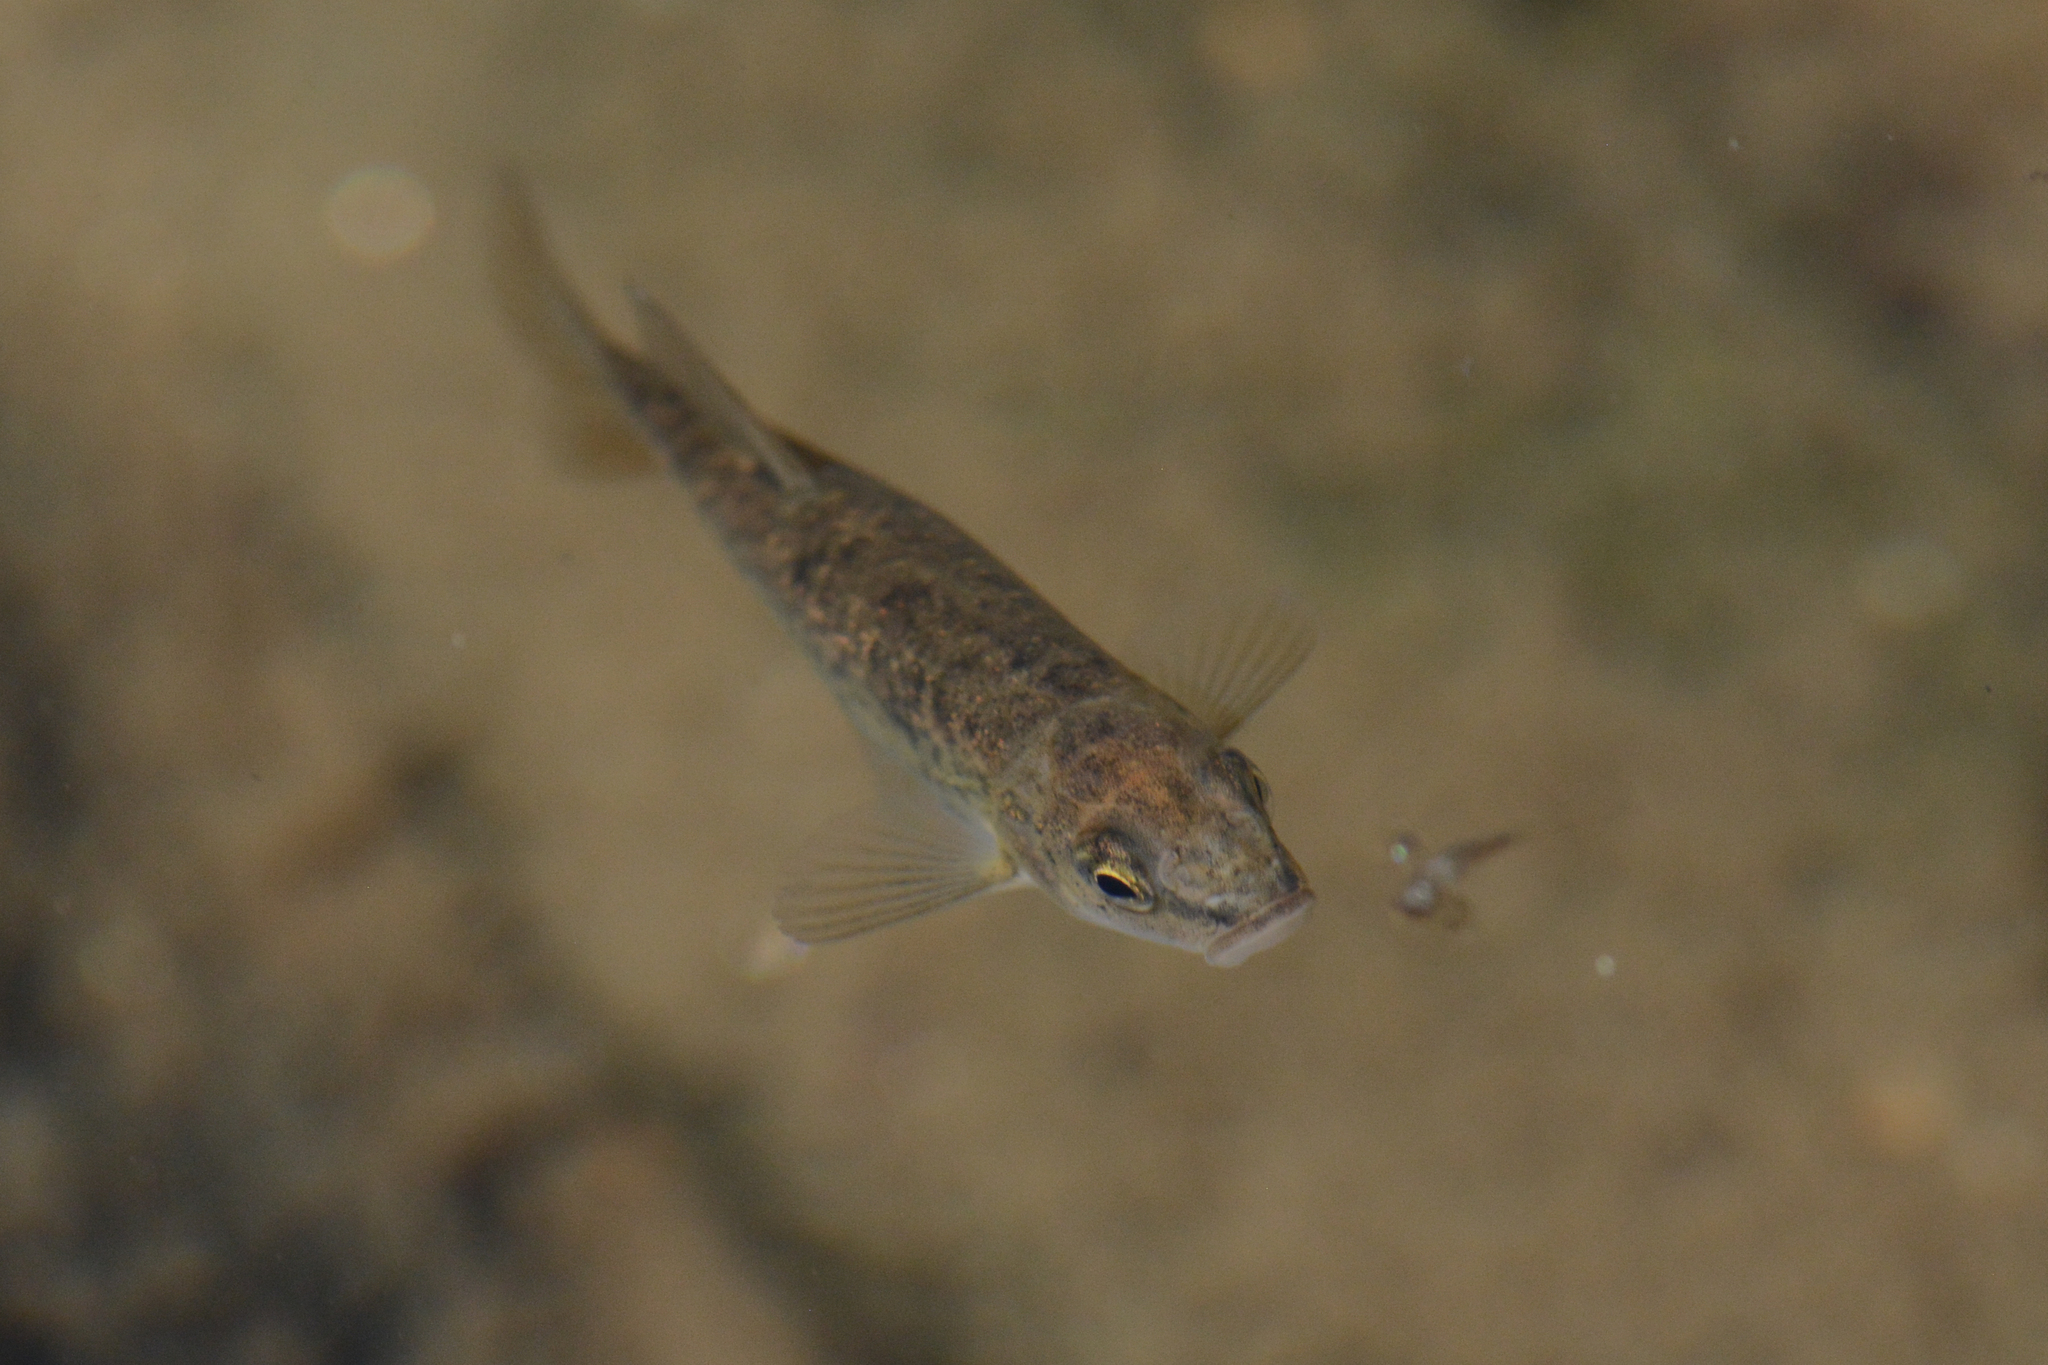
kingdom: Animalia
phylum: Chordata
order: Cypriniformes
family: Cyprinidae
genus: Rhinichthys
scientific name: Rhinichthys osculus
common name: Speckled dace
